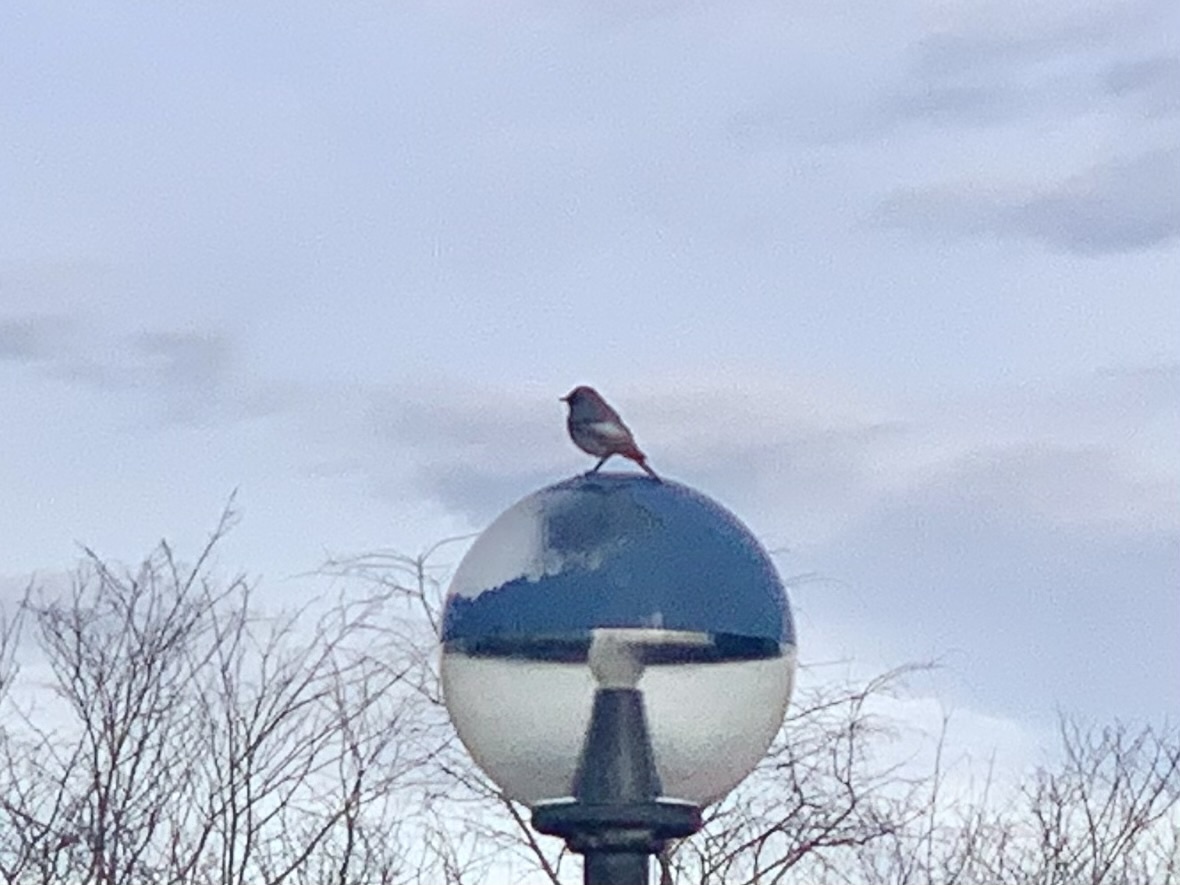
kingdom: Animalia
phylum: Chordata
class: Aves
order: Passeriformes
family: Muscicapidae
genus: Phoenicurus
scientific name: Phoenicurus ochruros
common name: Black redstart
